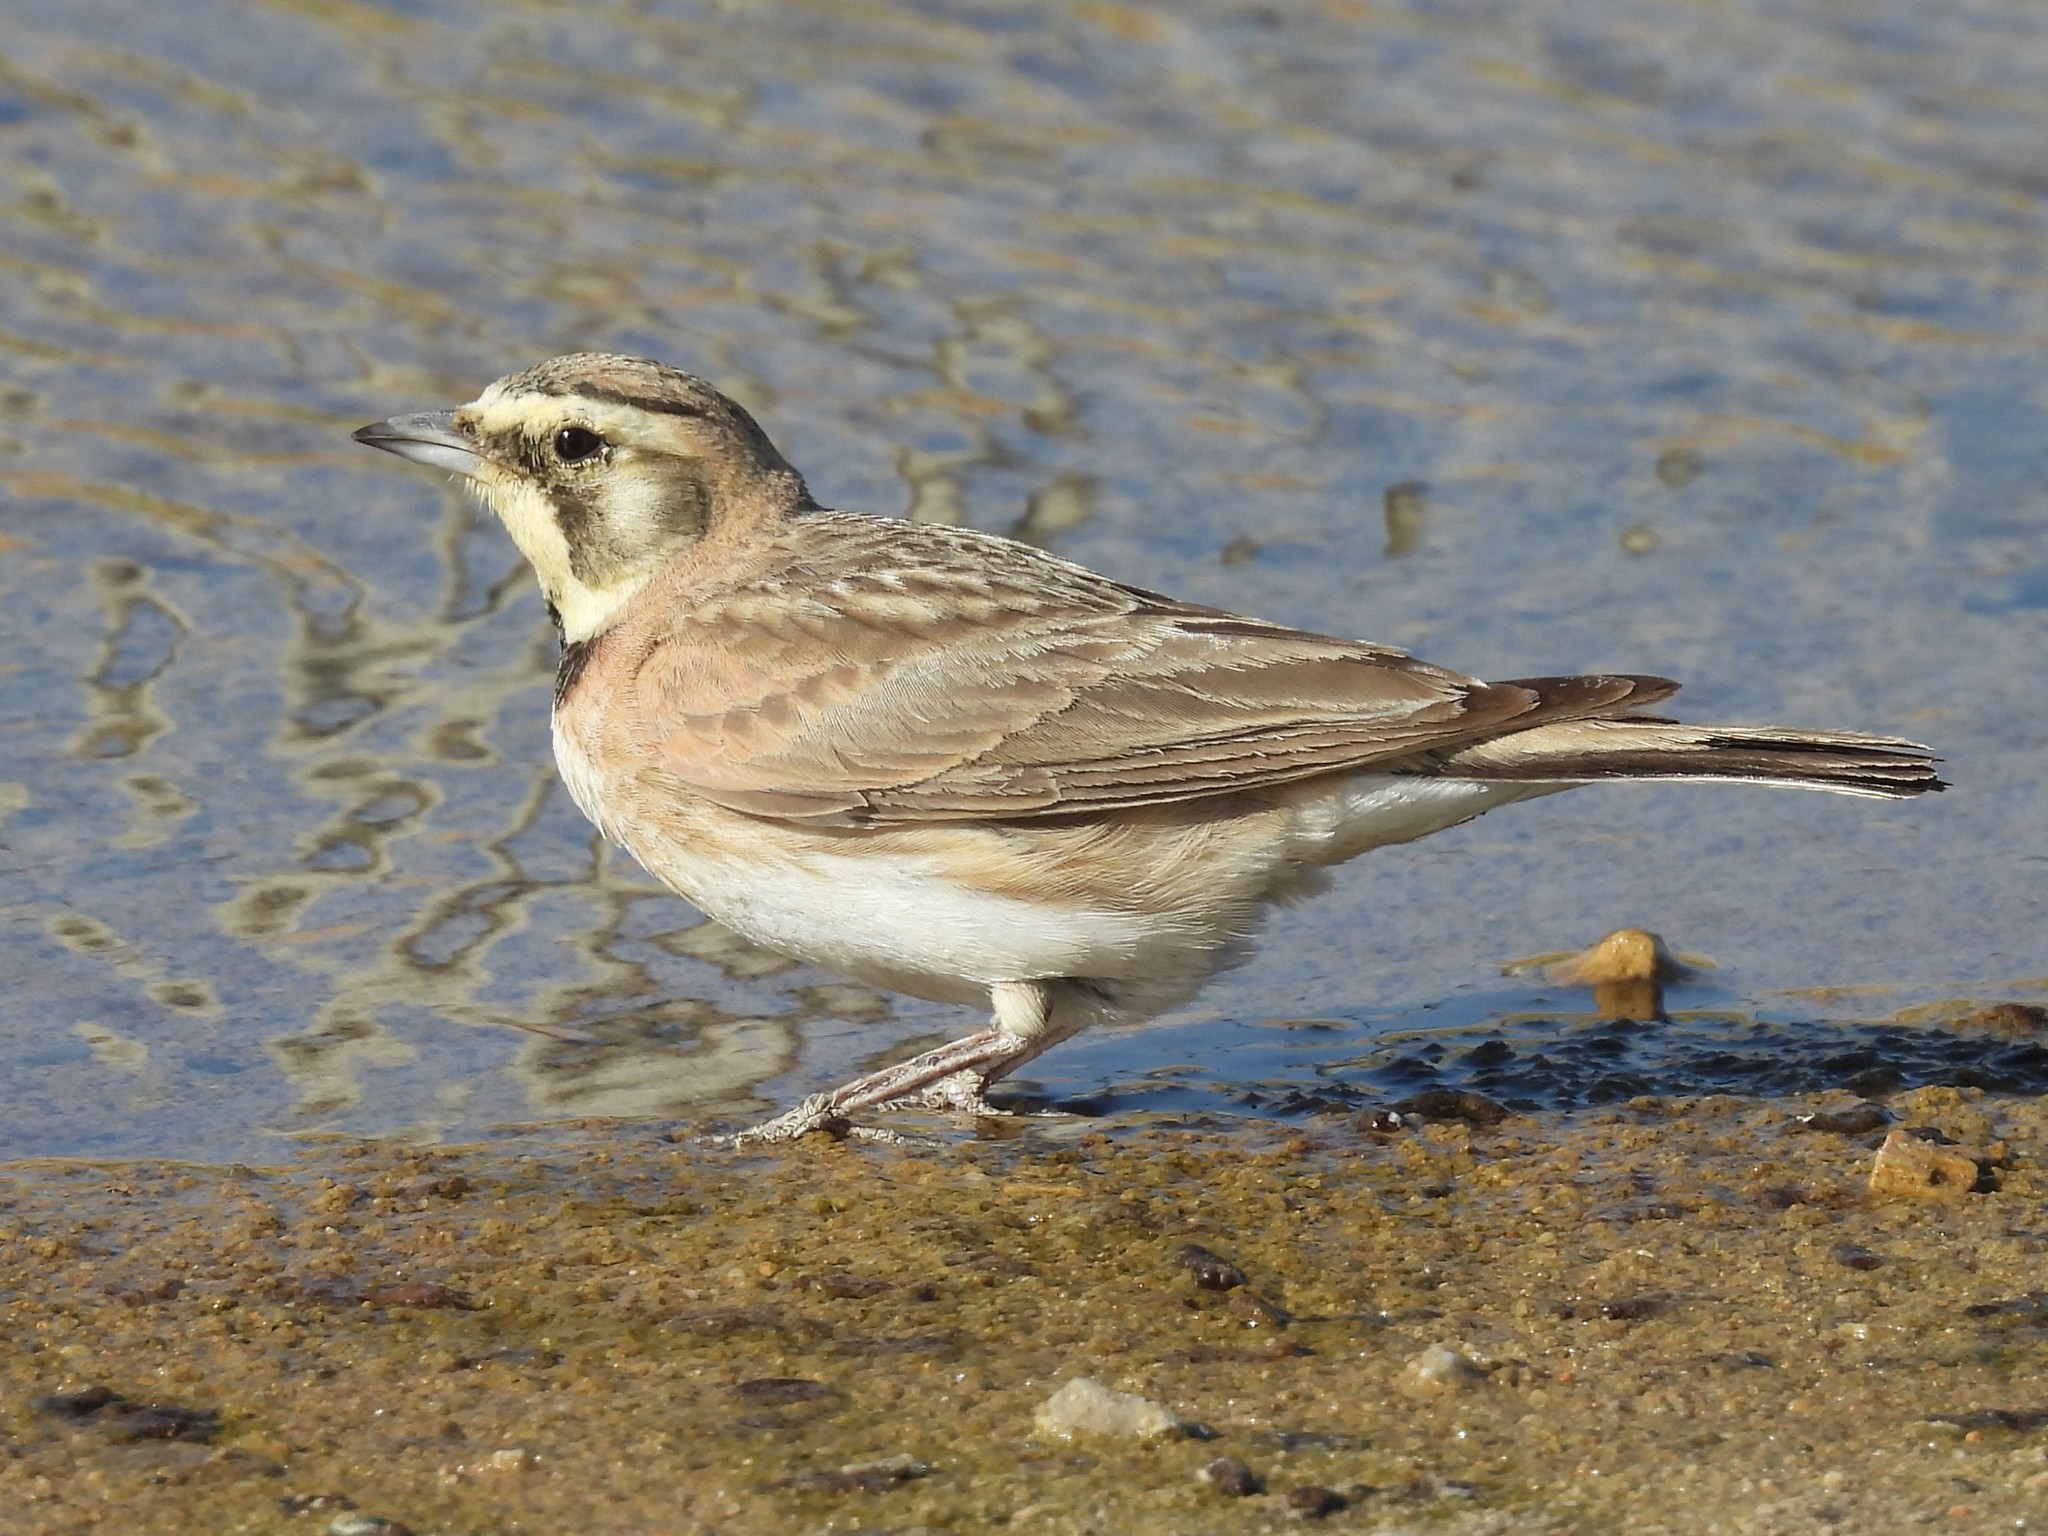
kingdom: Animalia
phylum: Chordata
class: Aves
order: Passeriformes
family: Alaudidae
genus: Eremophila
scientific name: Eremophila alpestris
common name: Horned lark
